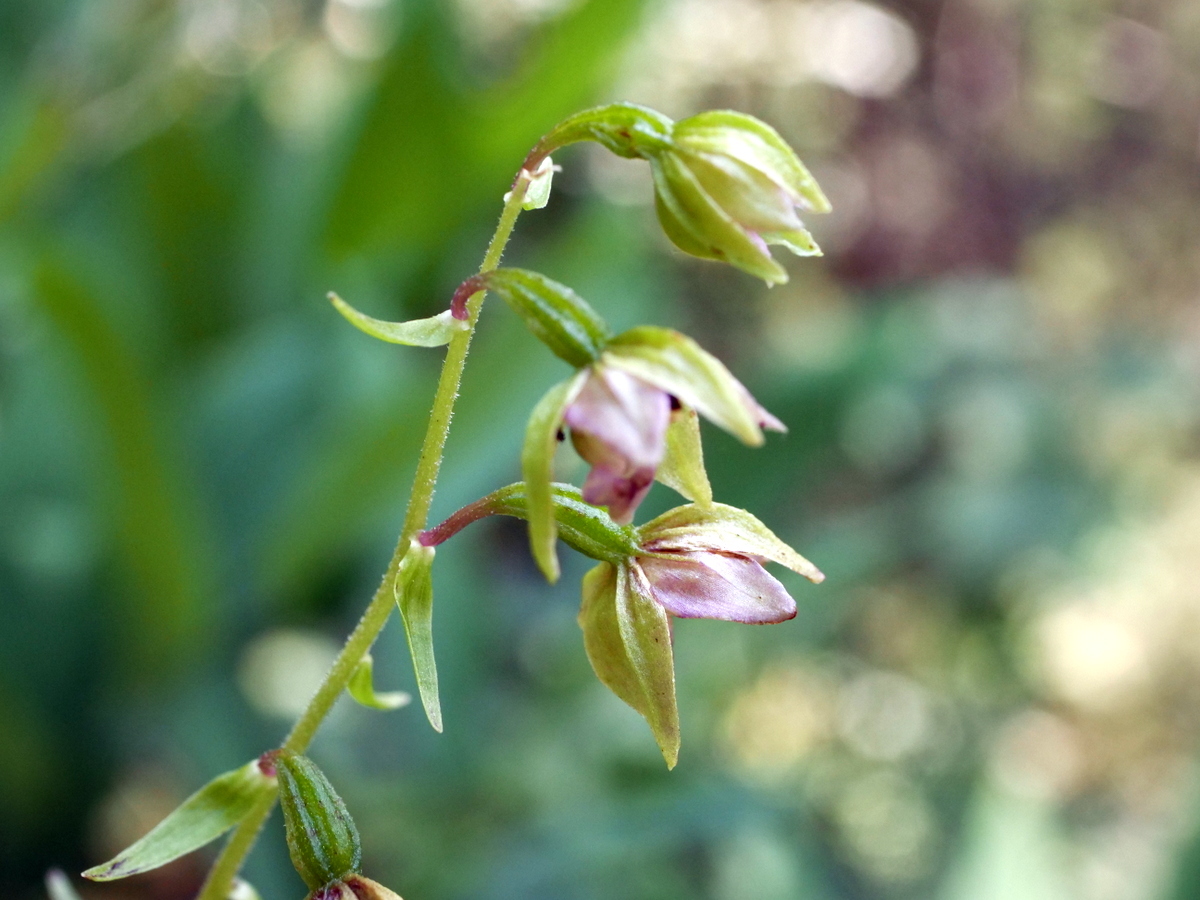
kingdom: Plantae
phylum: Tracheophyta
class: Liliopsida
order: Asparagales
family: Orchidaceae
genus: Epipactis
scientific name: Epipactis helleborine
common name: Broad-leaved helleborine
